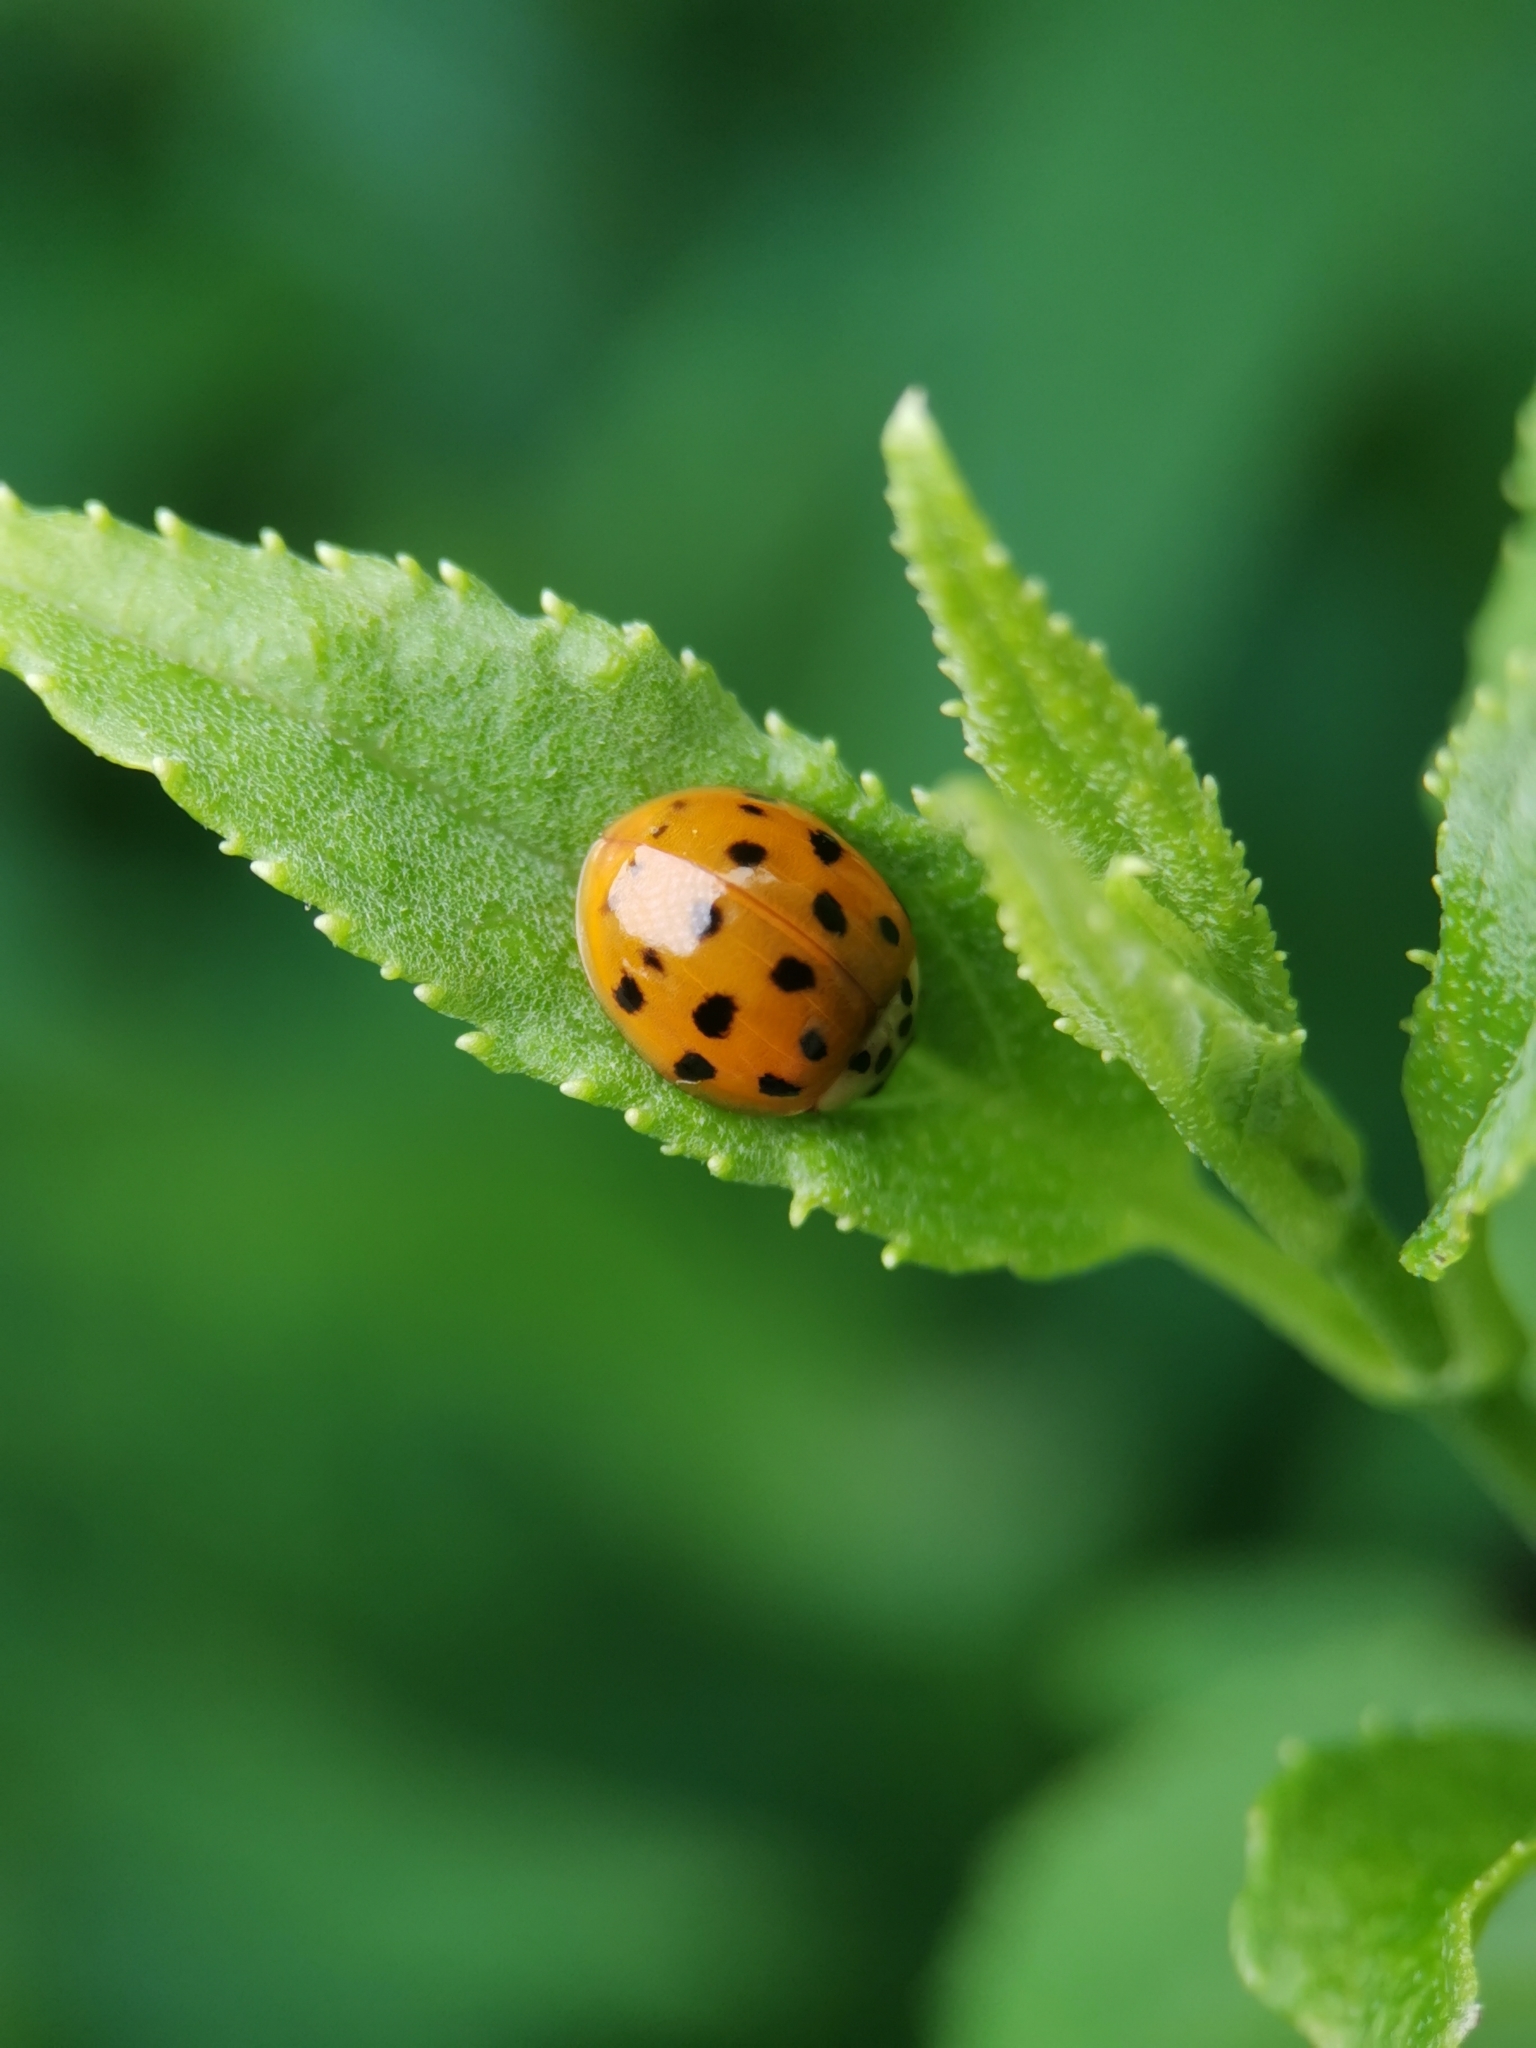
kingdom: Animalia
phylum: Arthropoda
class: Insecta
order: Coleoptera
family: Coccinellidae
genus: Harmonia
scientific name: Harmonia axyridis
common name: Harlequin ladybird
